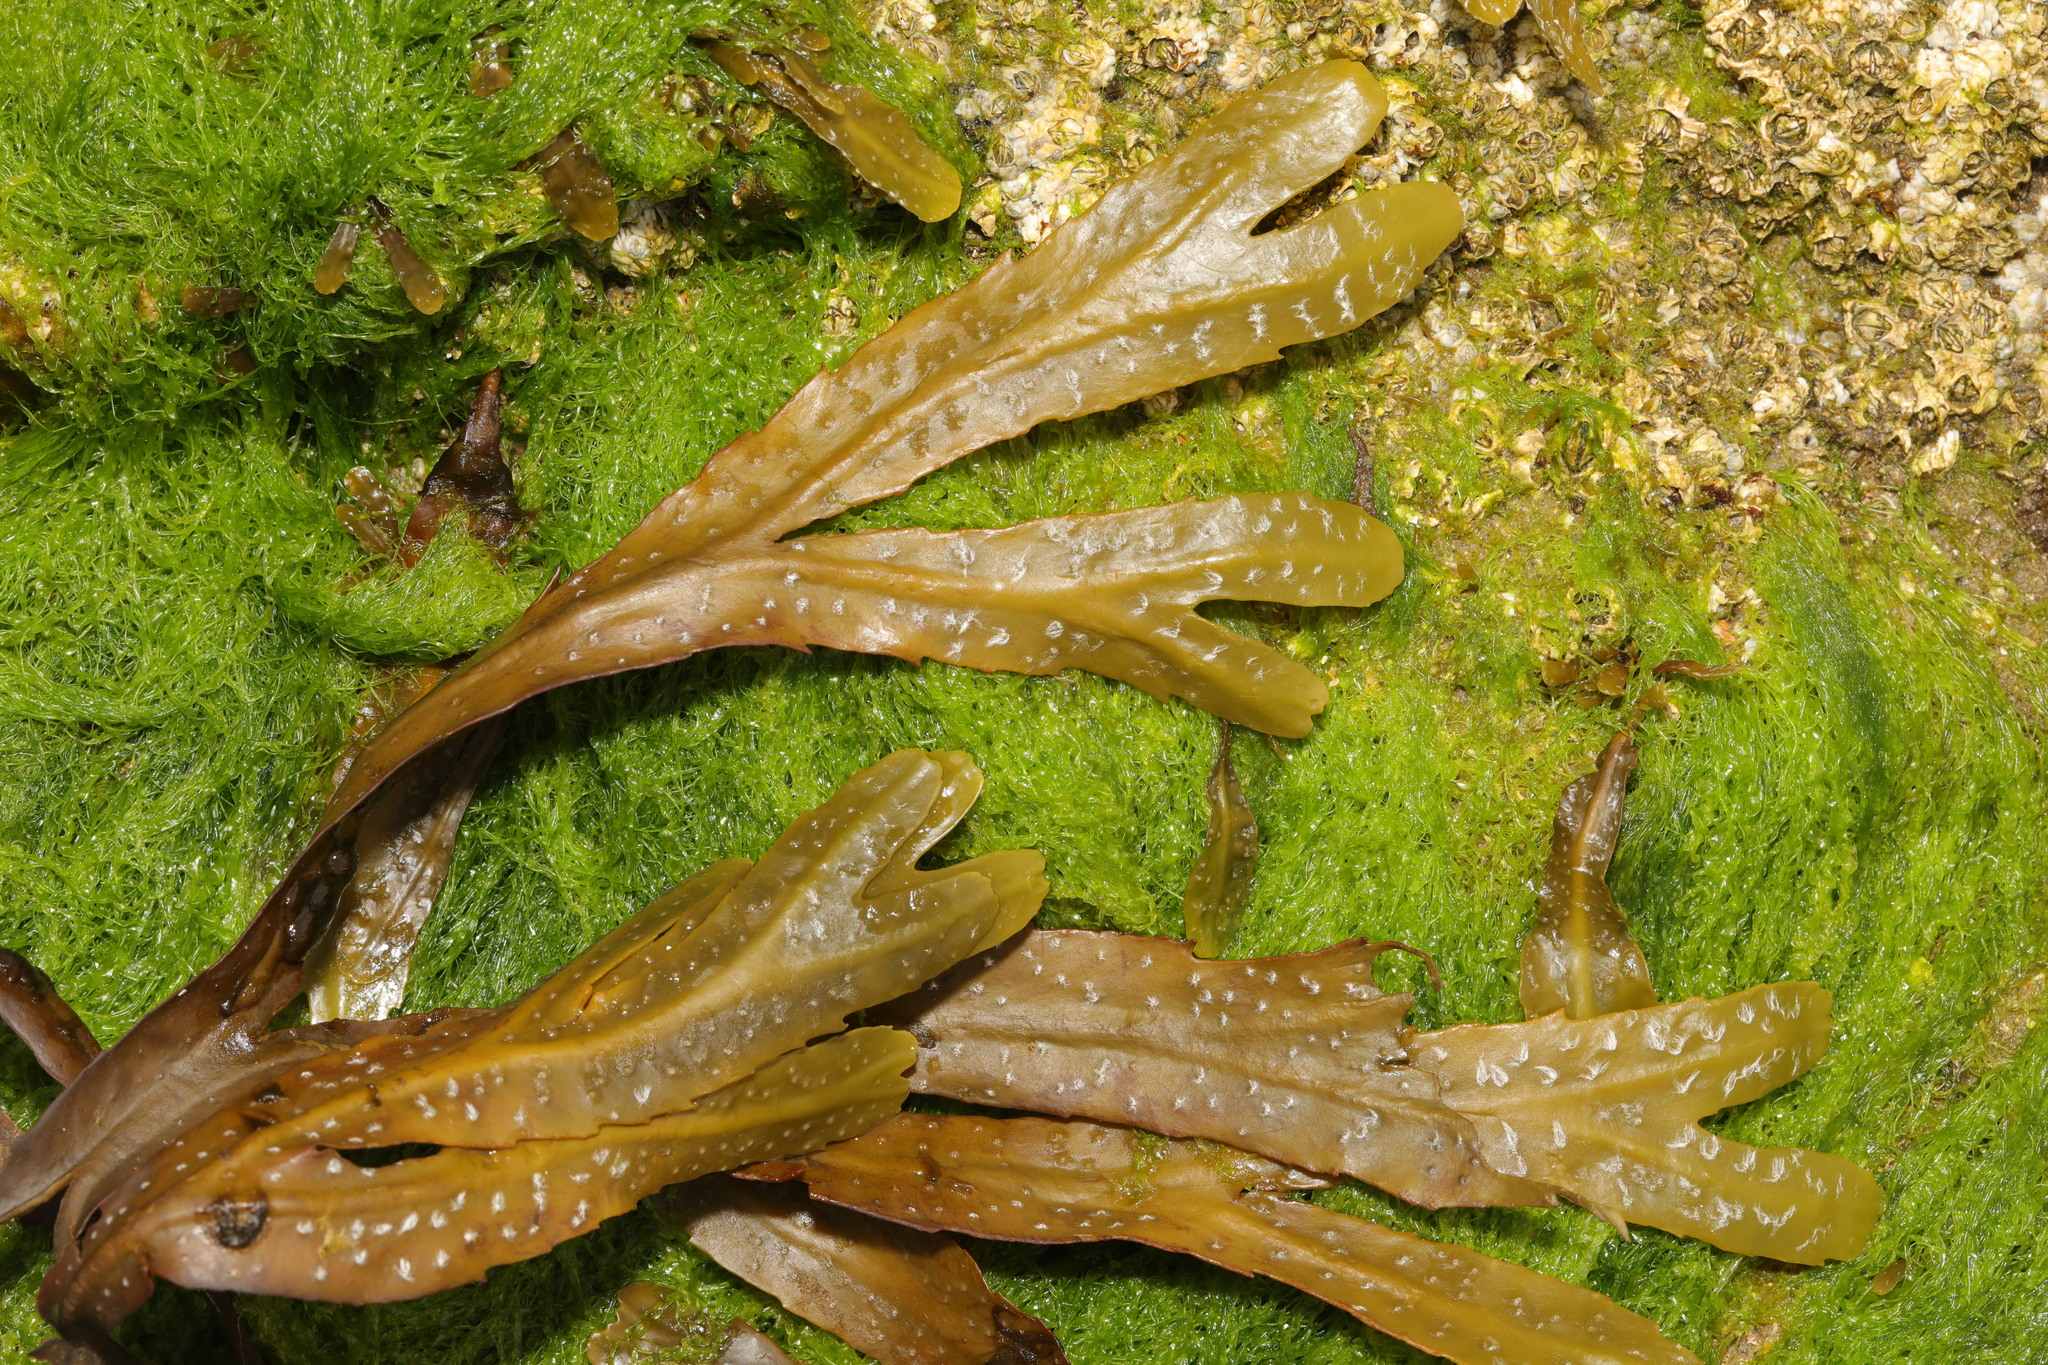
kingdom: Chromista
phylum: Ochrophyta
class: Phaeophyceae
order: Fucales
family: Fucaceae
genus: Fucus
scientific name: Fucus serratus
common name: Toothed wrack
